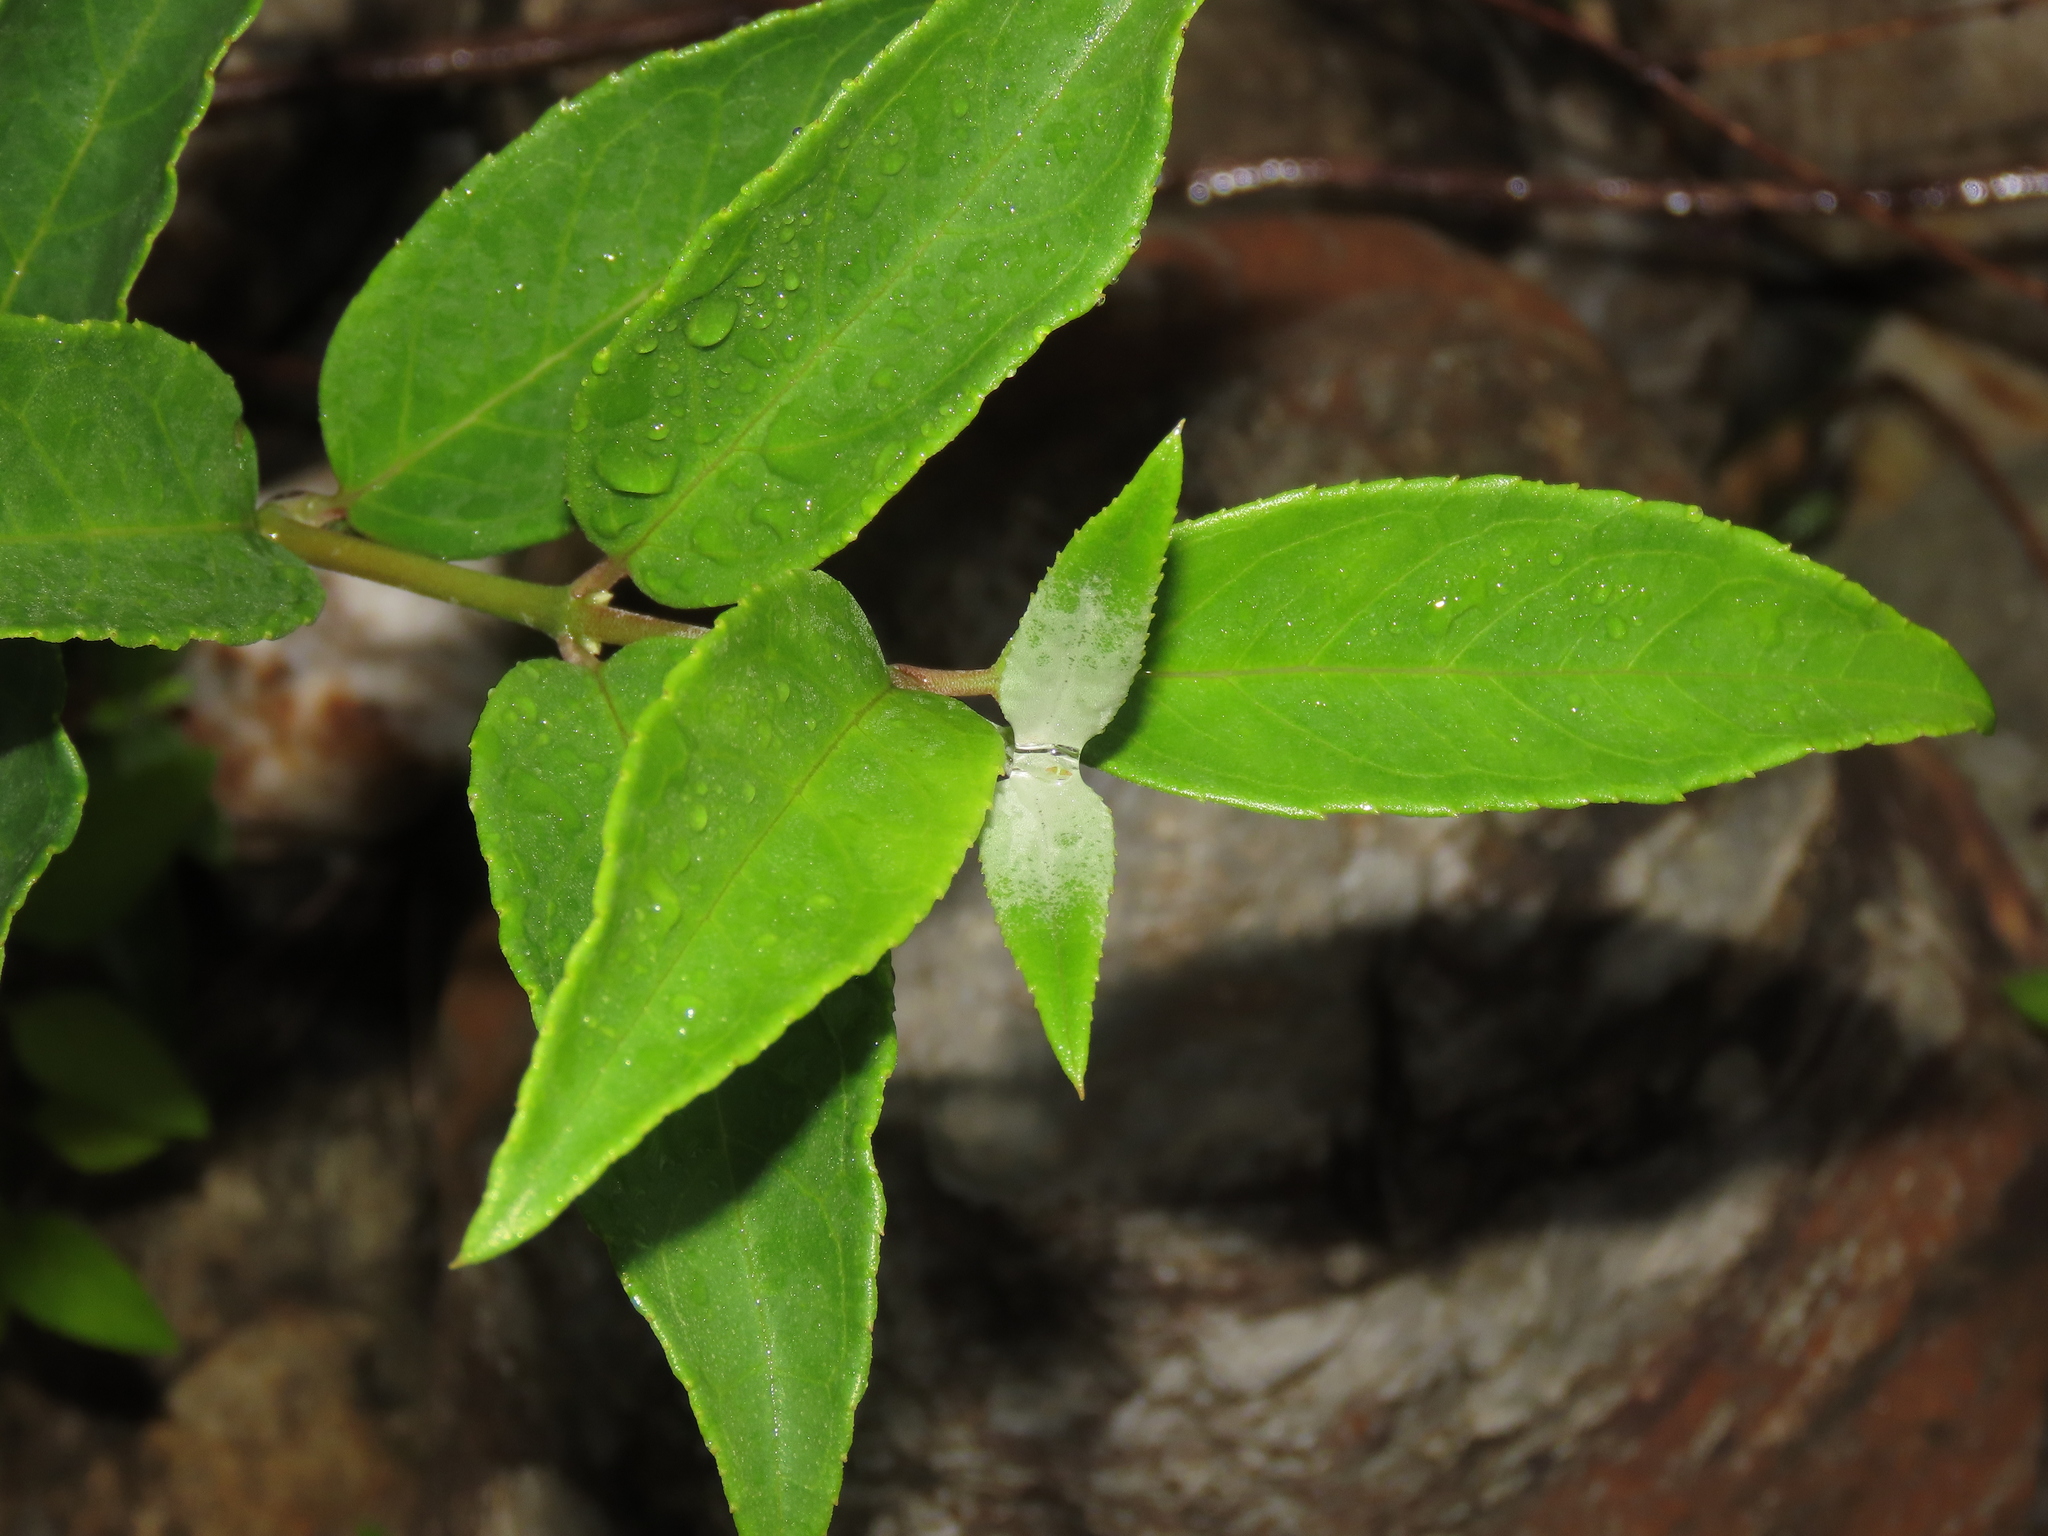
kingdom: Plantae
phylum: Tracheophyta
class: Magnoliopsida
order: Cornales
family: Hydrangeaceae
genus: Deutzia
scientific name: Deutzia pulchra
